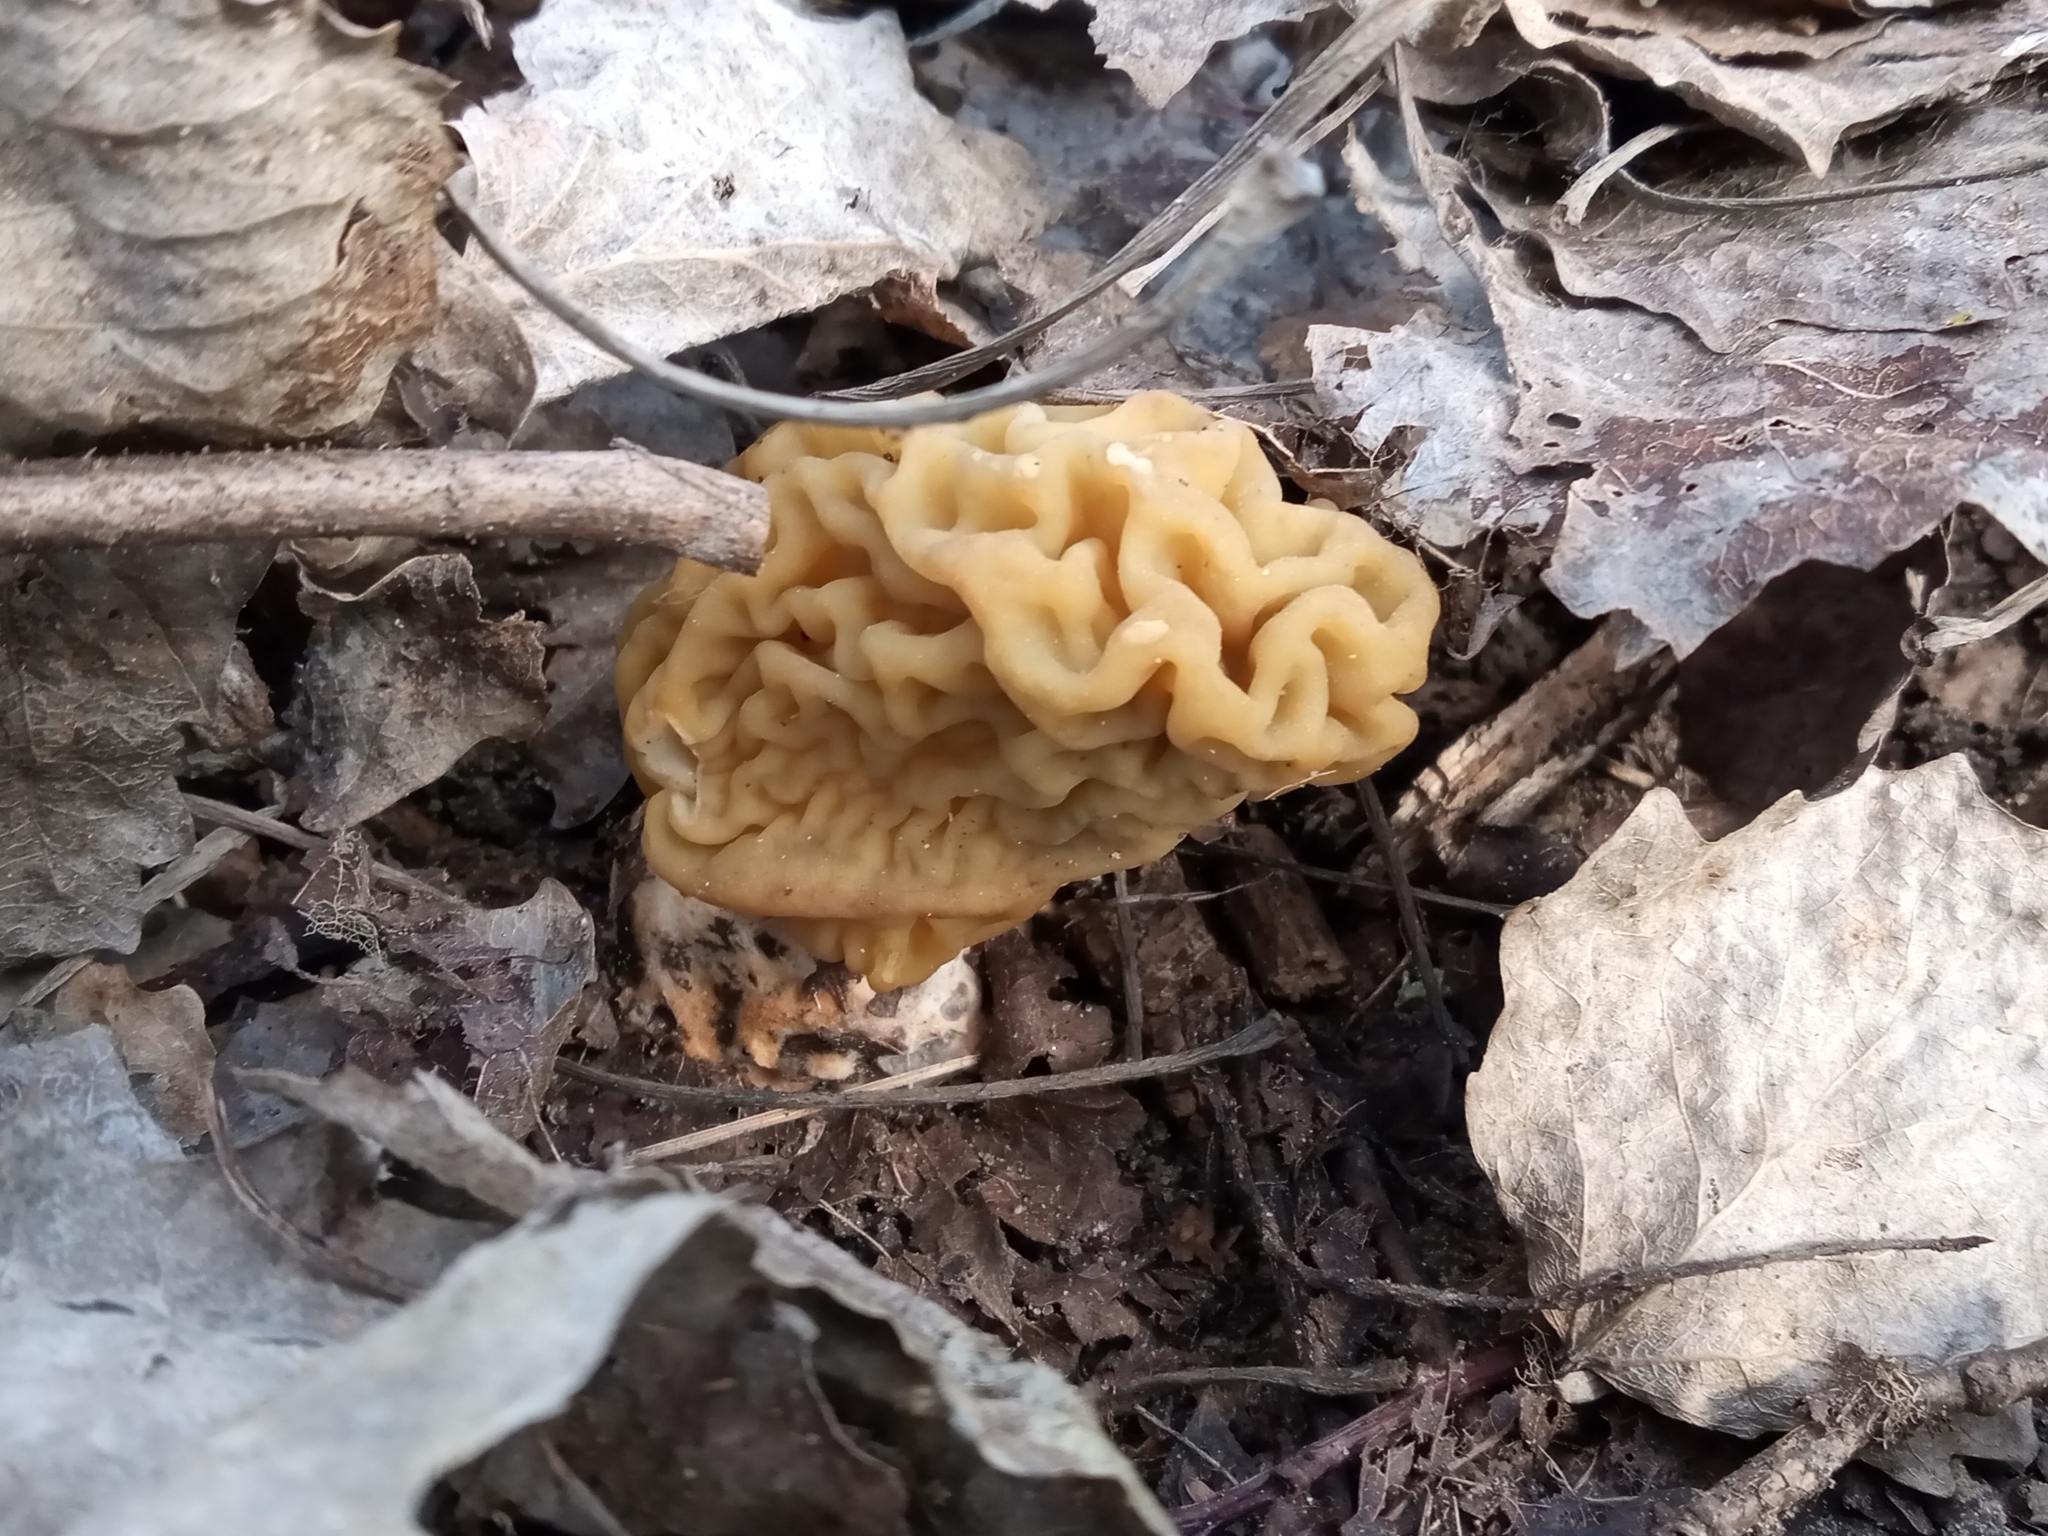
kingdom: Fungi
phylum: Ascomycota
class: Pezizomycetes
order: Pezizales
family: Discinaceae
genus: Gyromitra
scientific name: Gyromitra gigas
